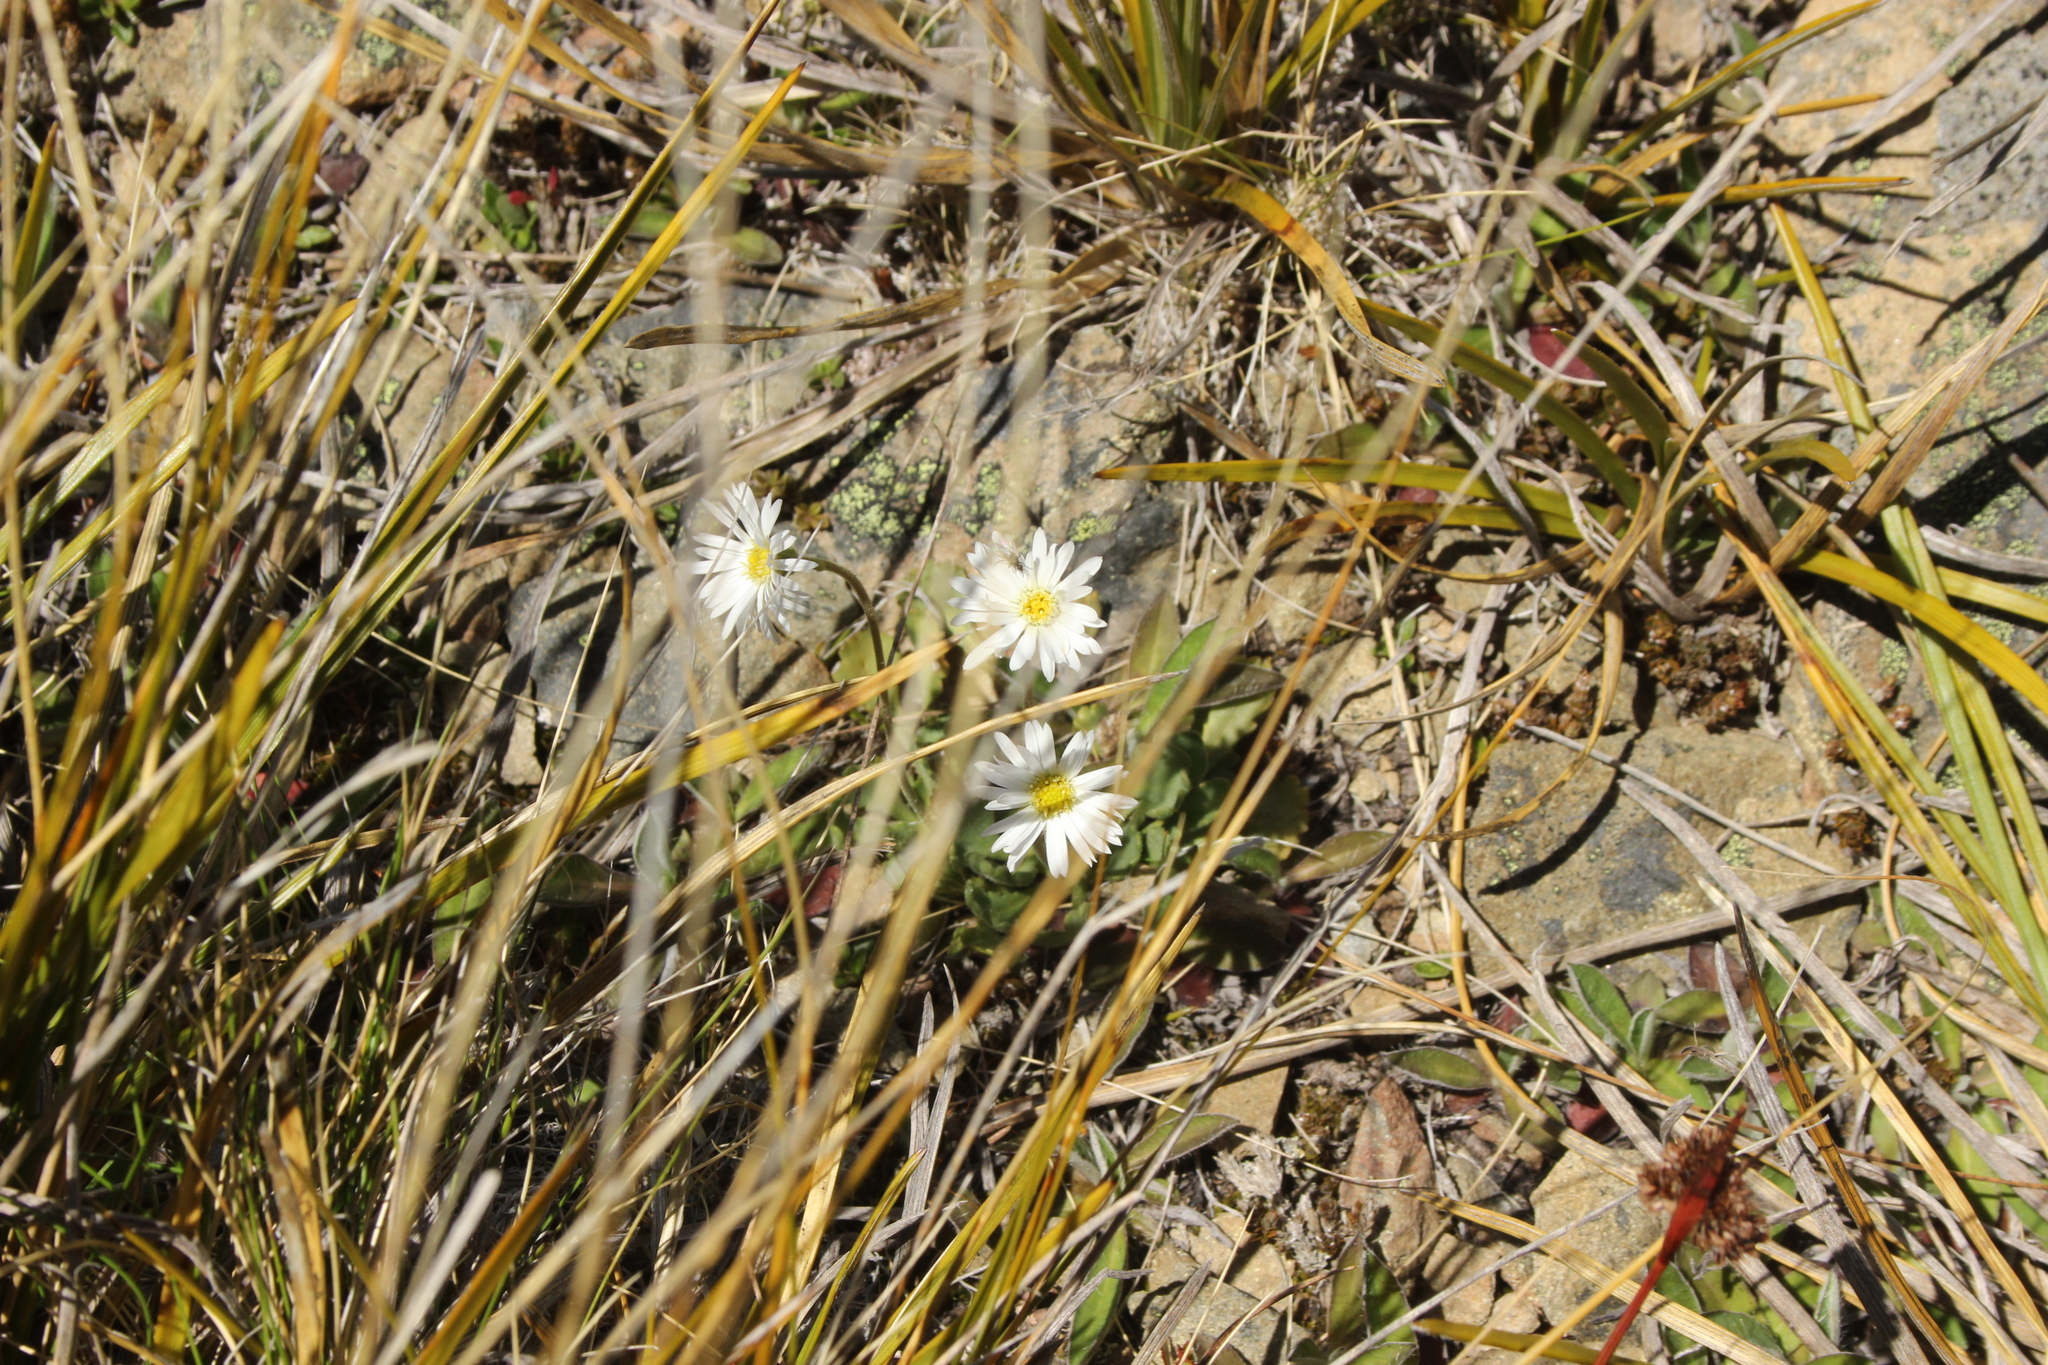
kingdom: Plantae
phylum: Tracheophyta
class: Magnoliopsida
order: Asterales
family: Asteraceae
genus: Brachyscome
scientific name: Brachyscome montana
